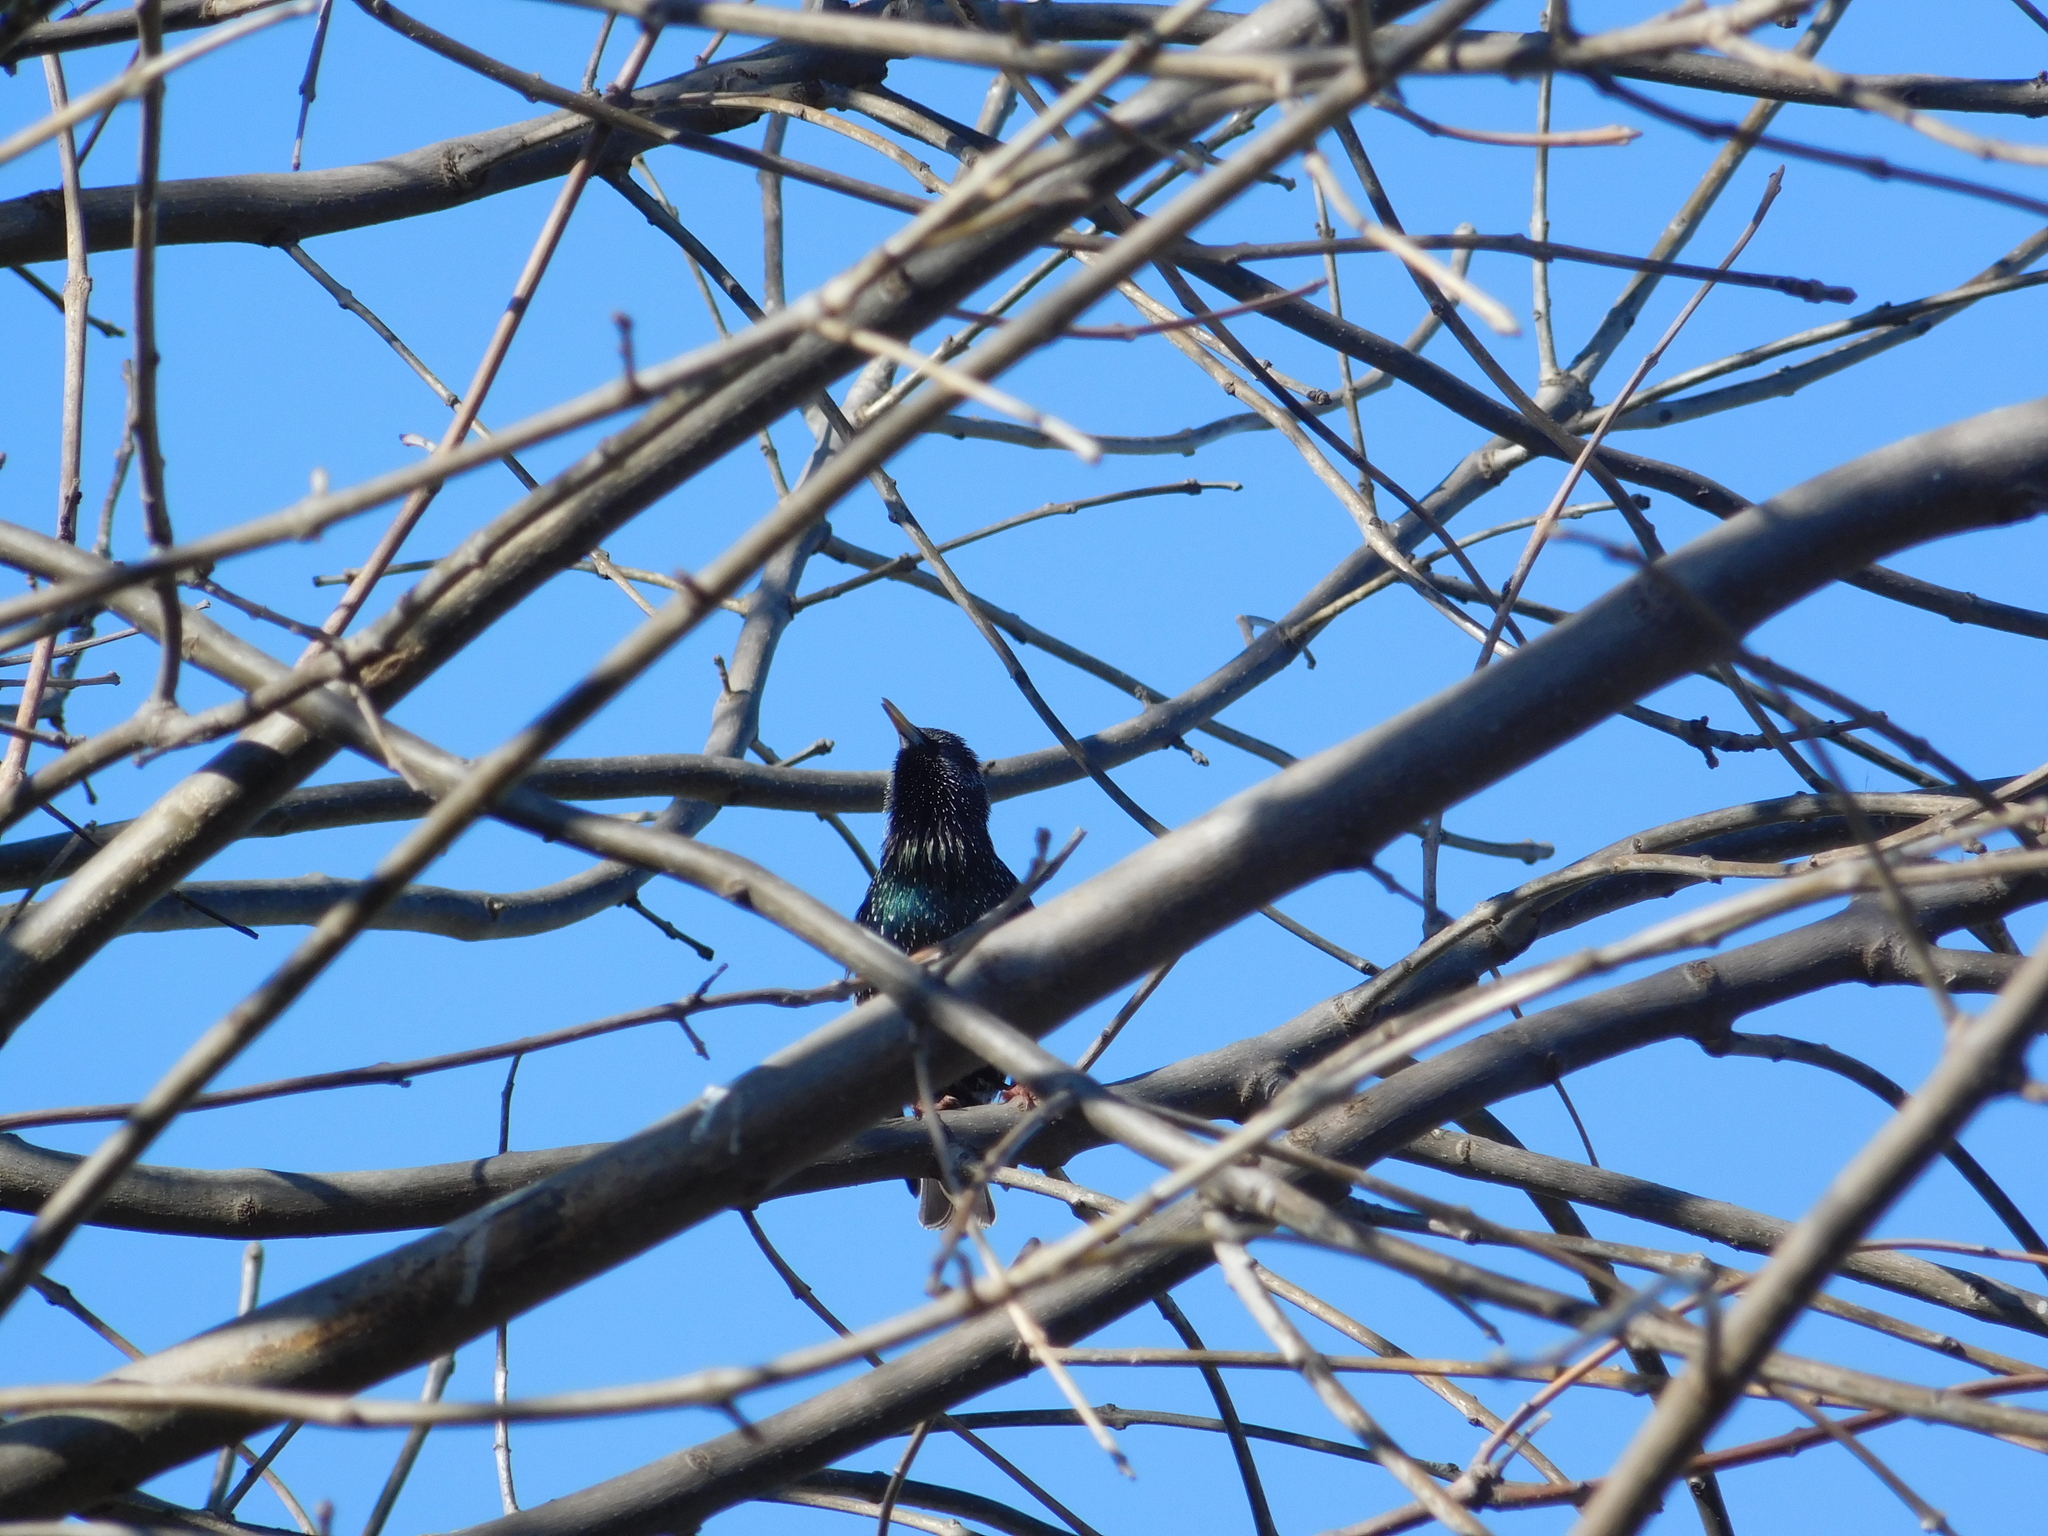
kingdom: Animalia
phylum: Chordata
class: Aves
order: Passeriformes
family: Sturnidae
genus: Sturnus
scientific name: Sturnus vulgaris
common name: Common starling
